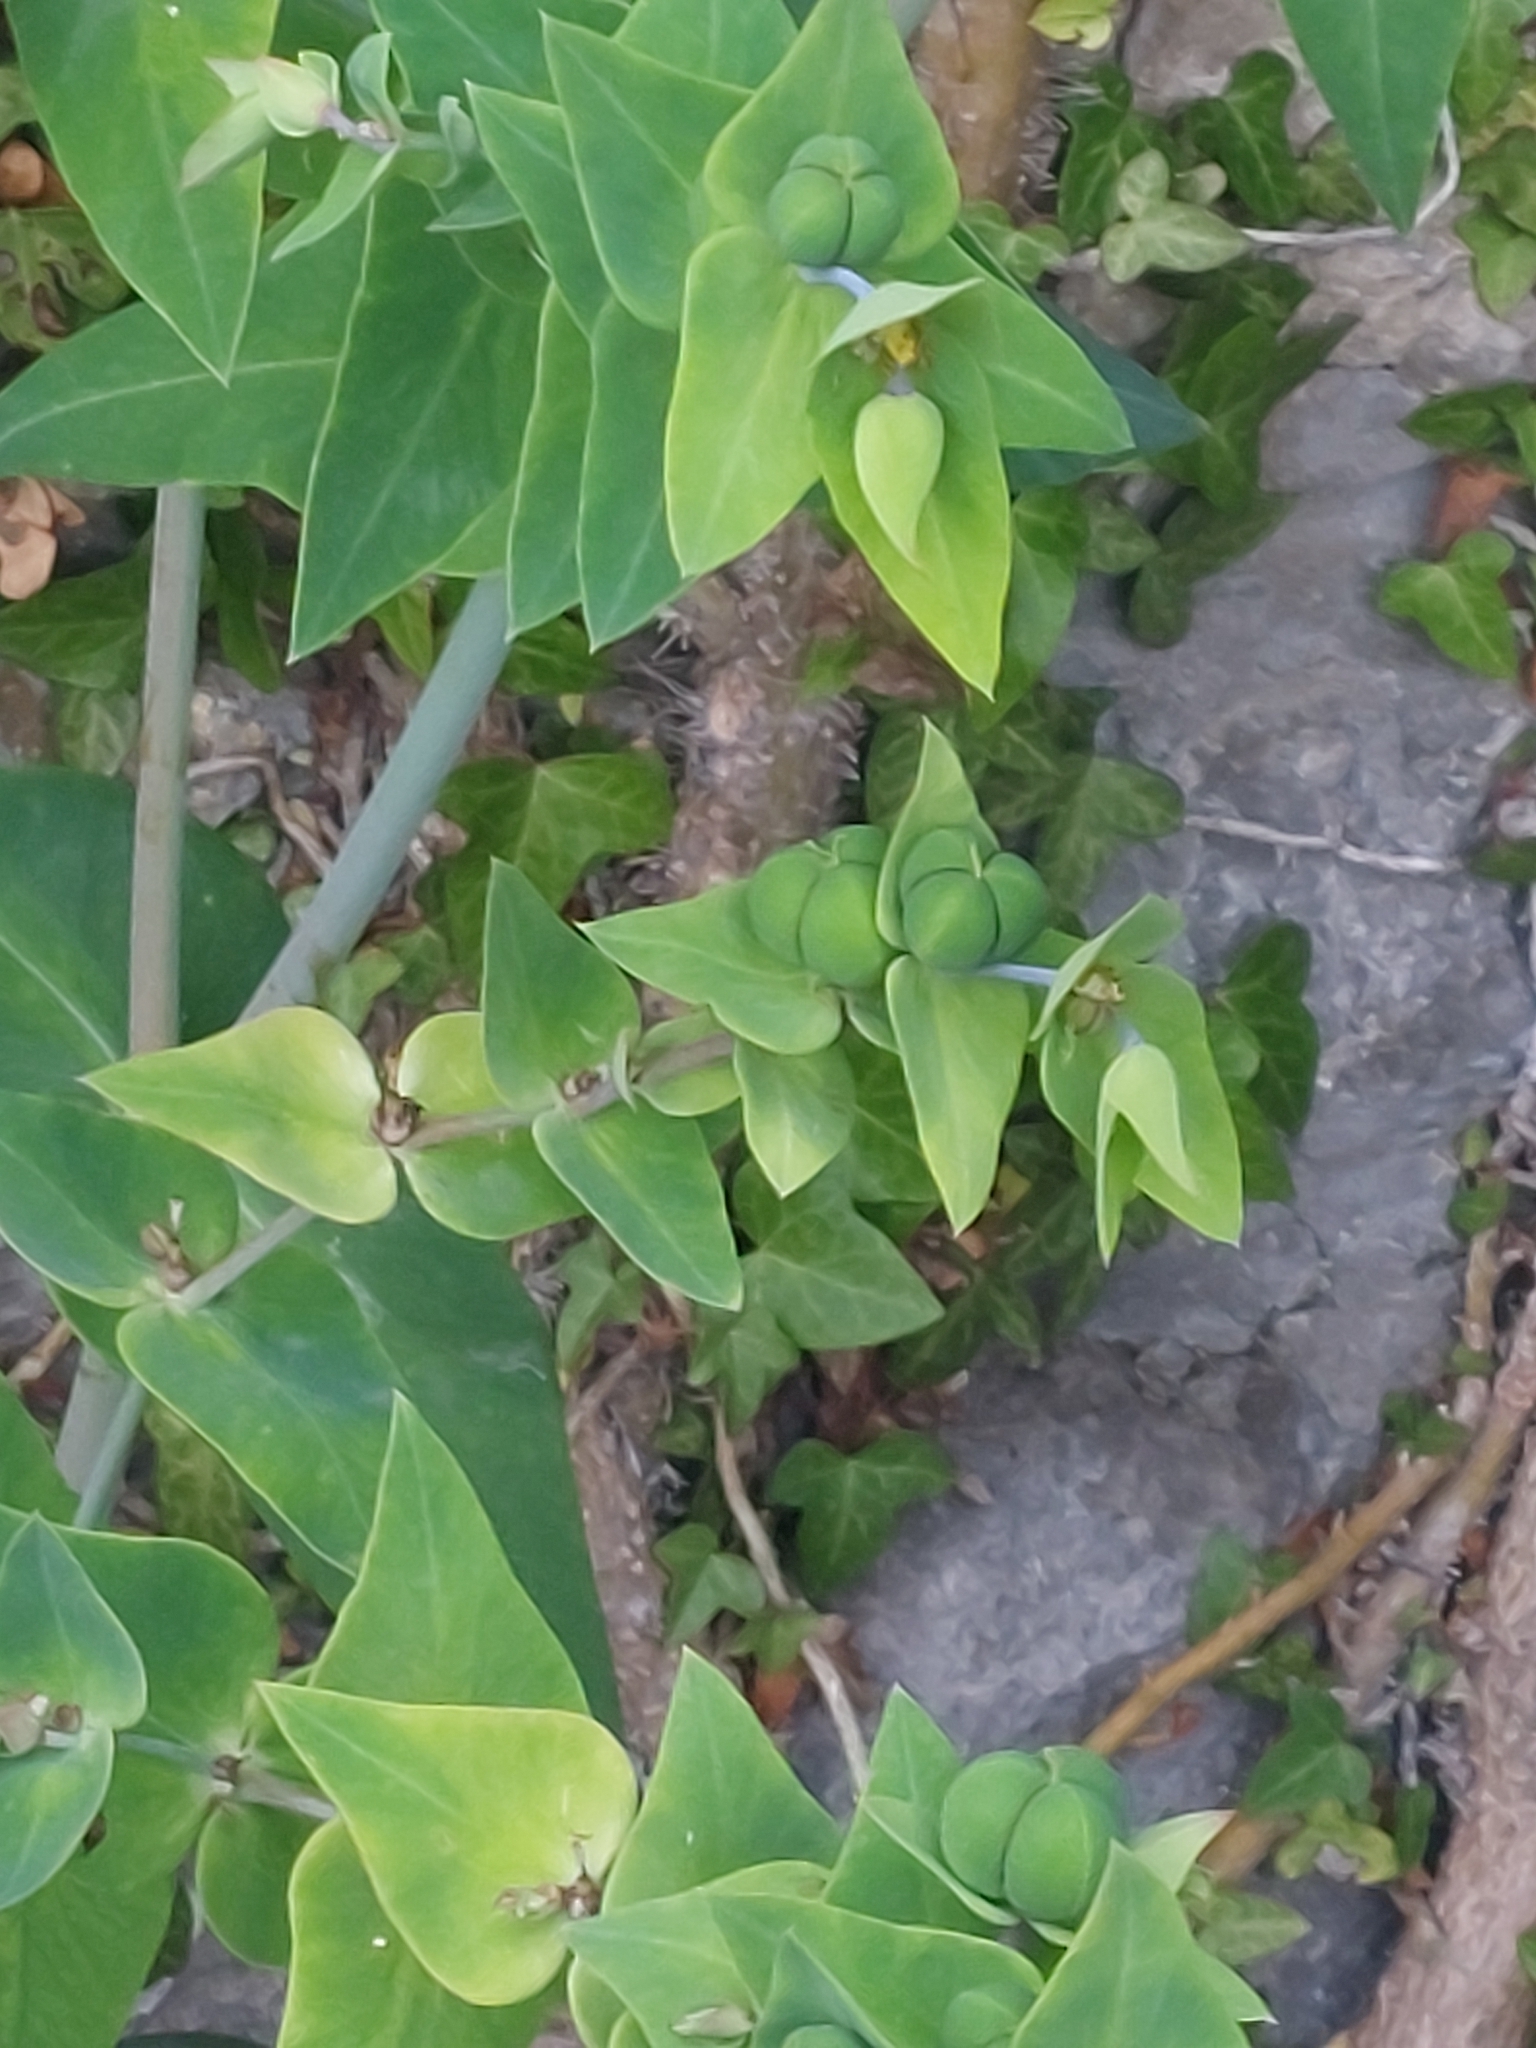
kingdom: Plantae
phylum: Tracheophyta
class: Magnoliopsida
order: Malpighiales
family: Euphorbiaceae
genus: Euphorbia
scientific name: Euphorbia lathyris
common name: Caper spurge
